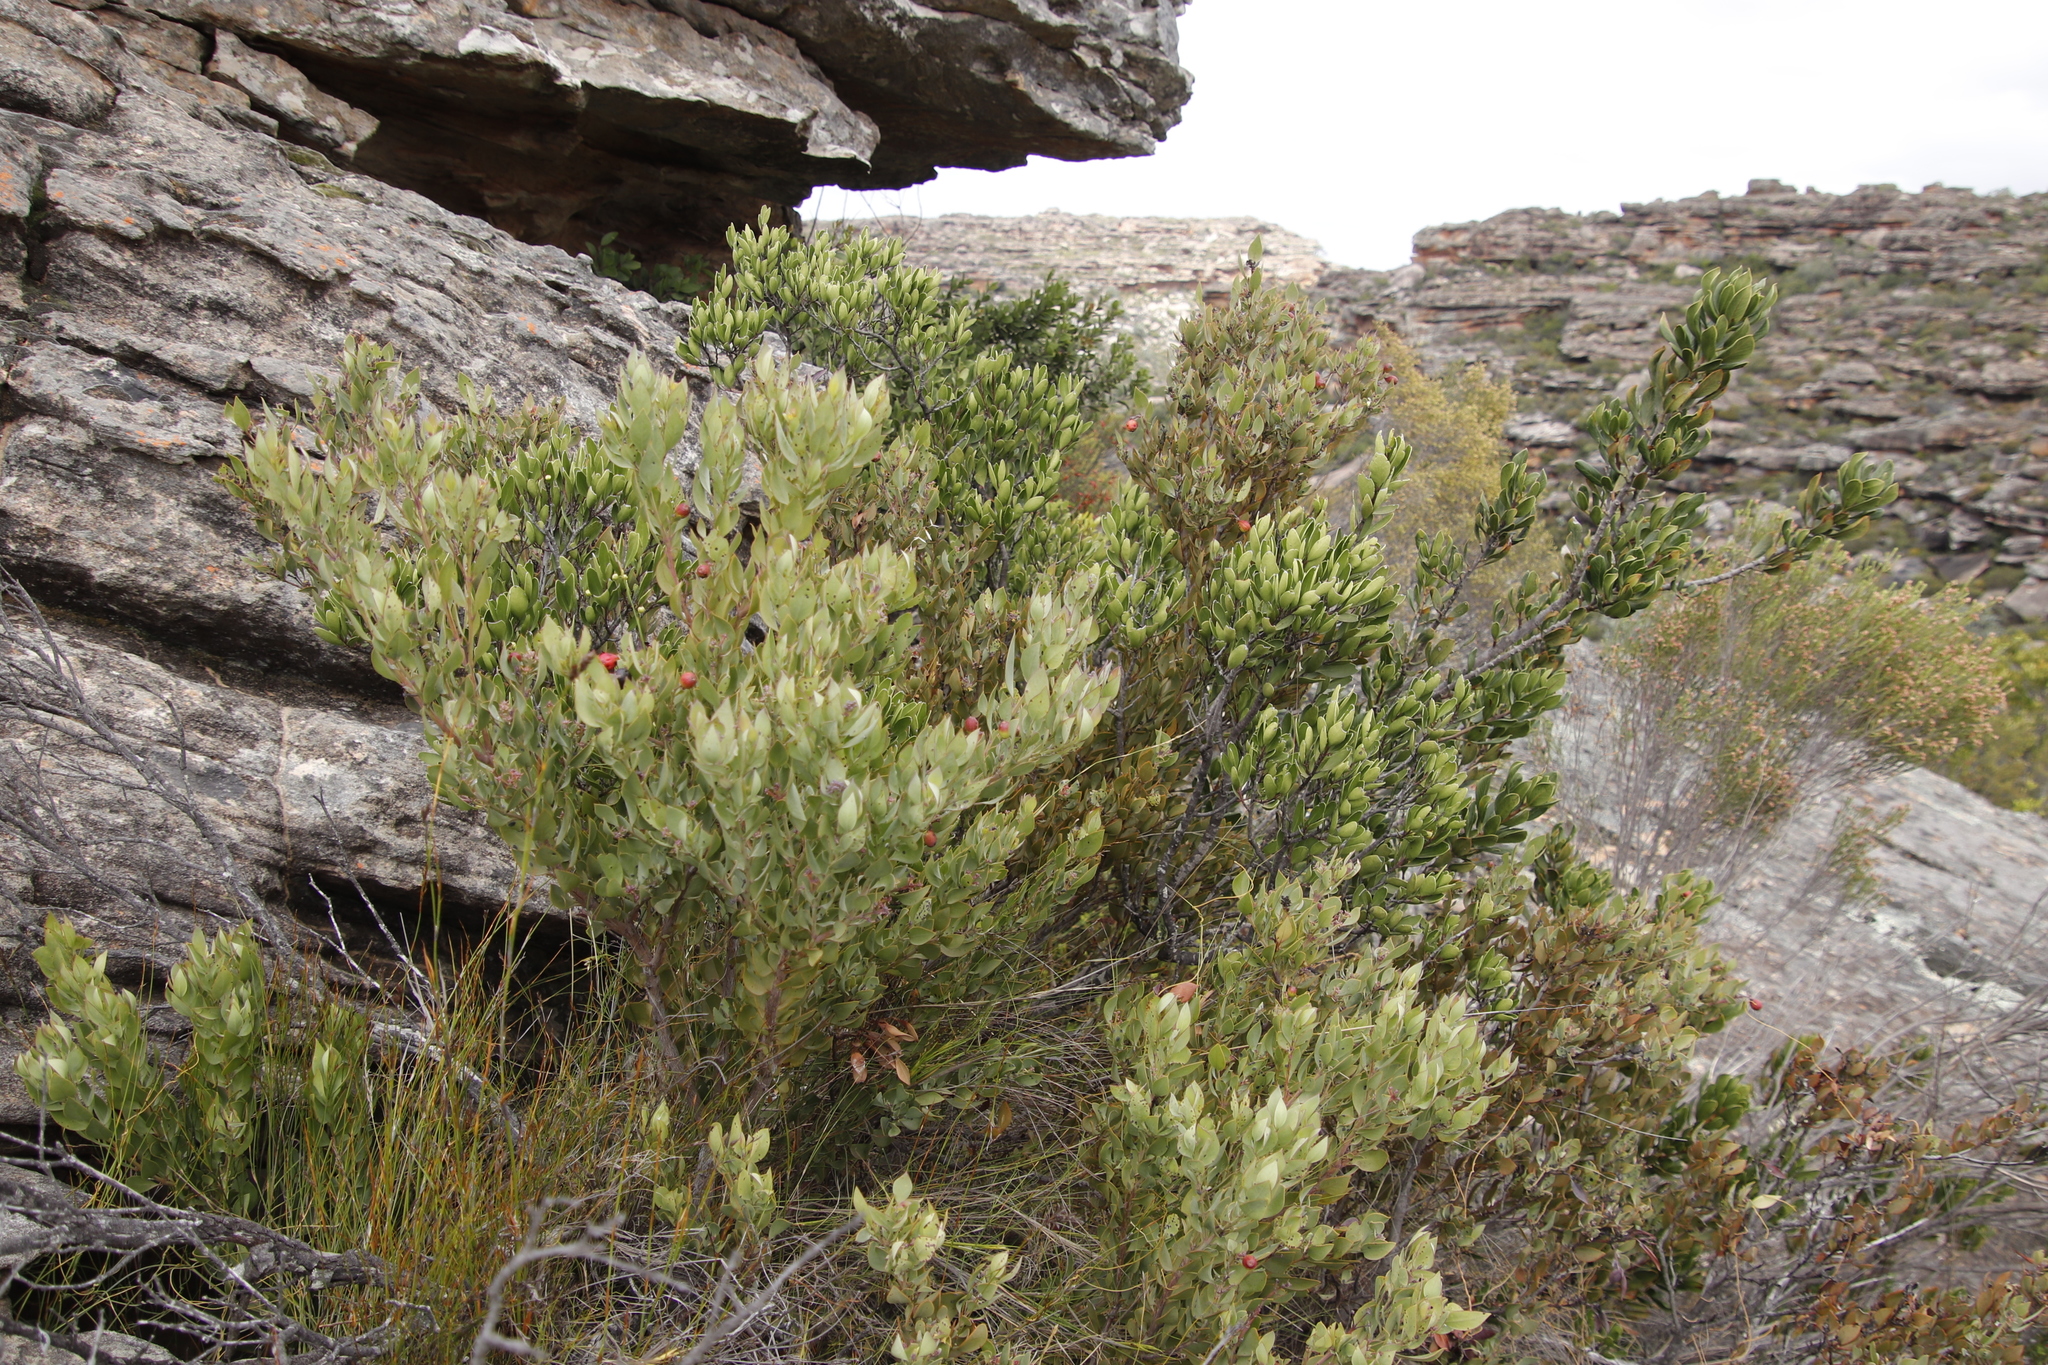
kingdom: Plantae
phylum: Tracheophyta
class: Magnoliopsida
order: Santalales
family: Santalaceae
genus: Osyris
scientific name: Osyris compressa
